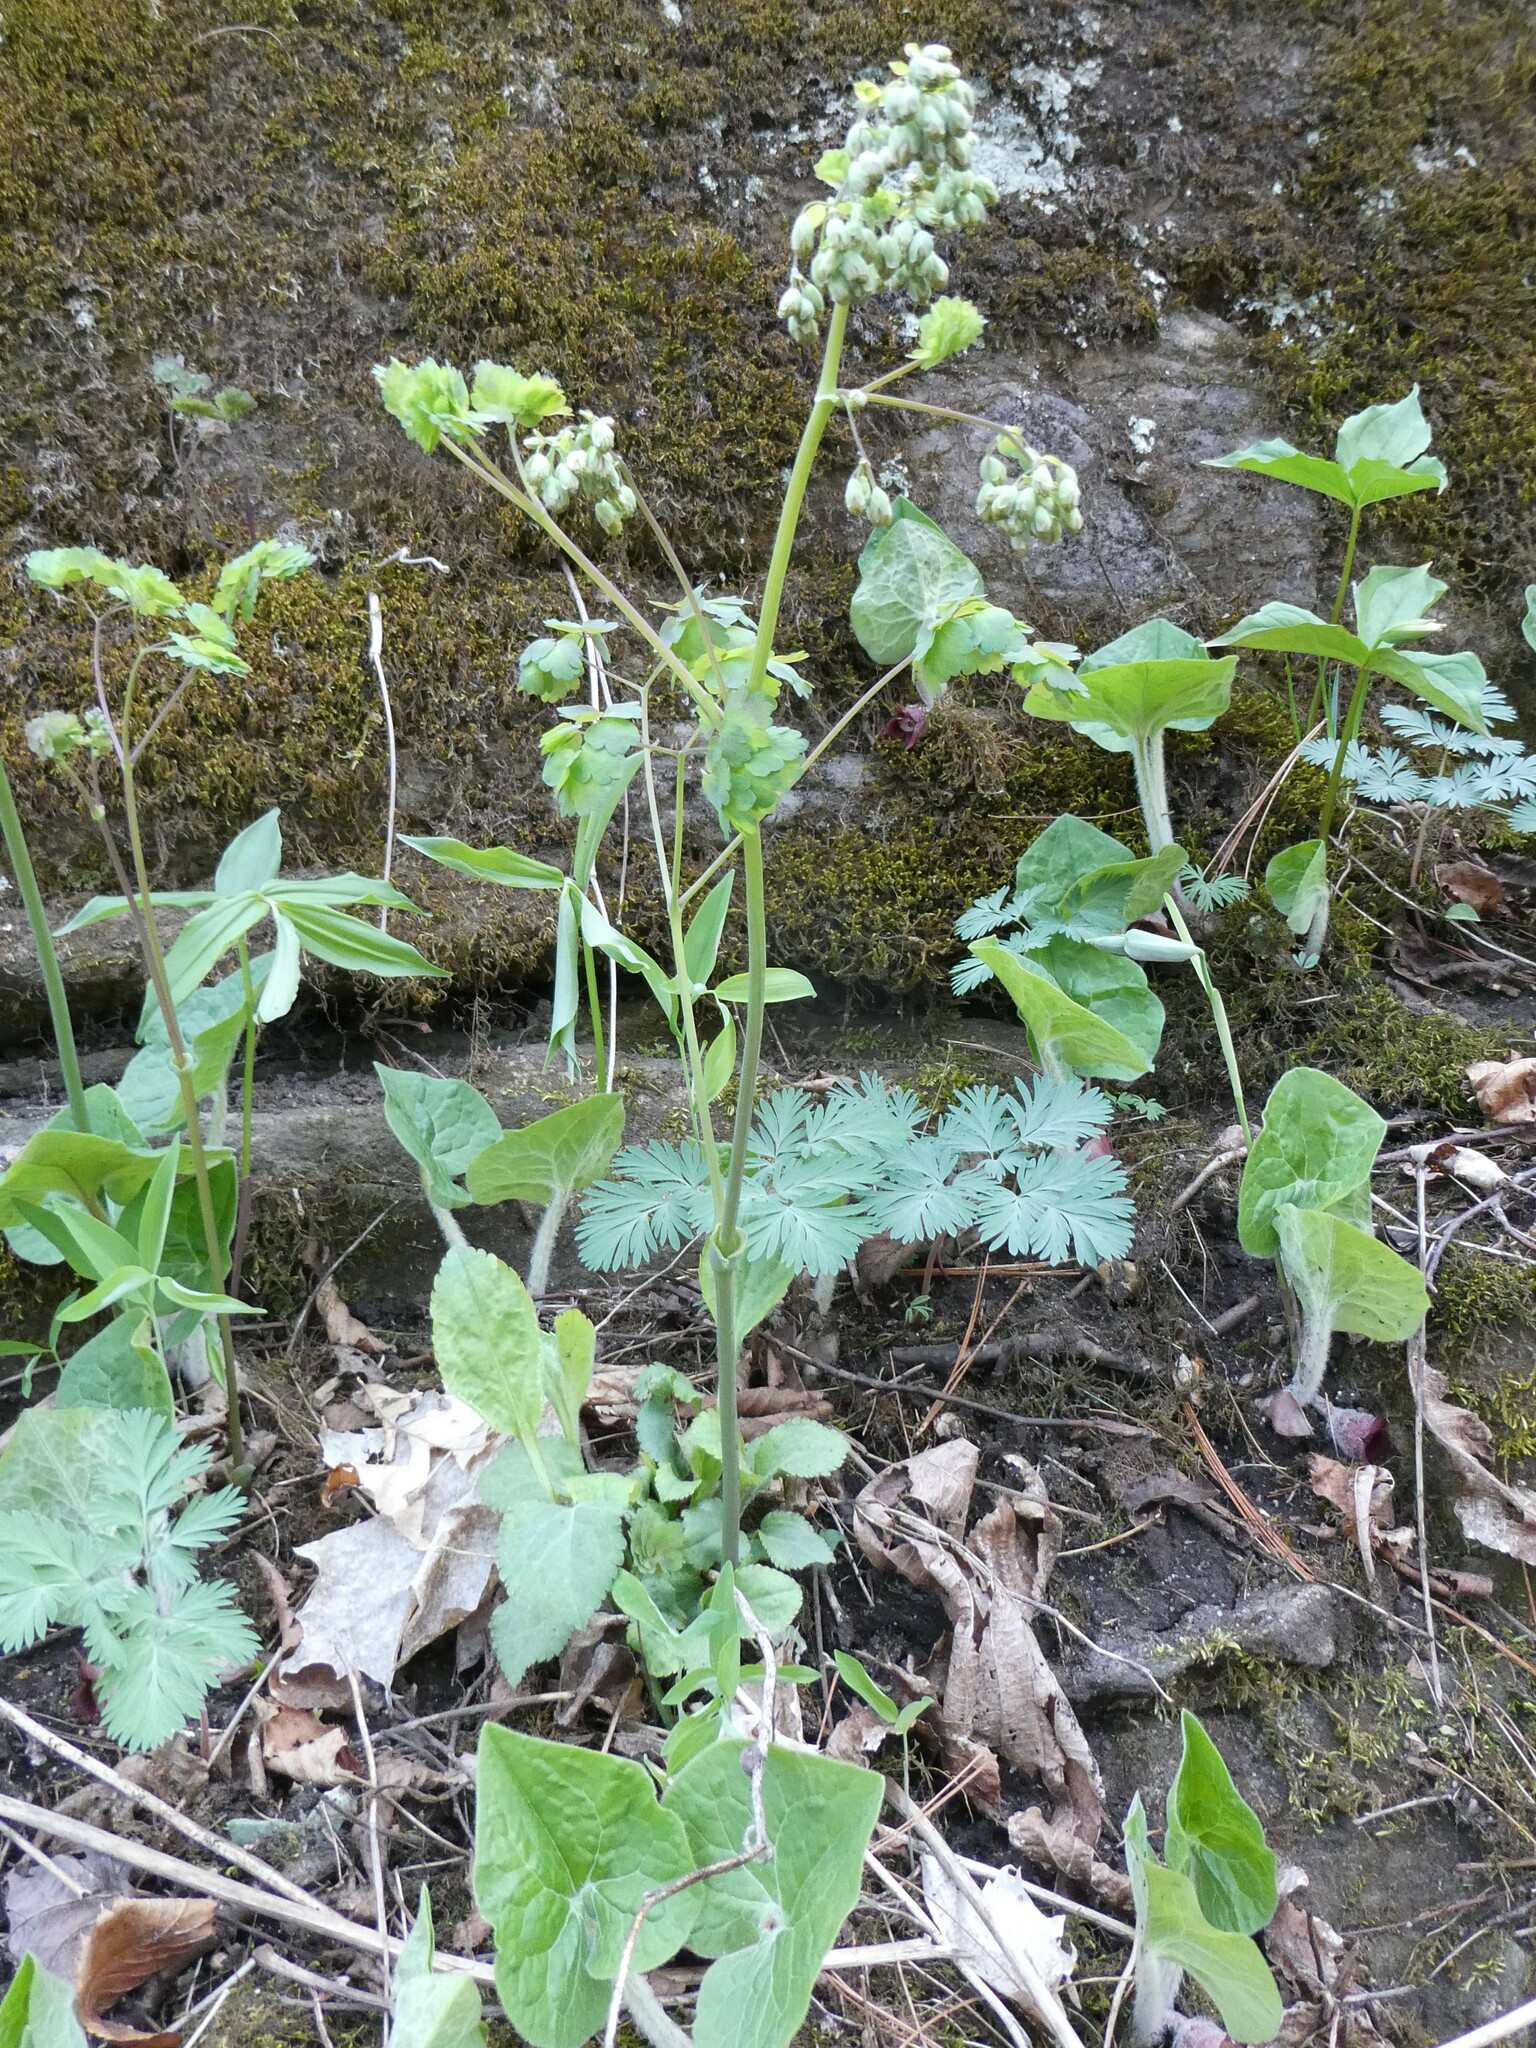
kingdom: Plantae
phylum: Tracheophyta
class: Magnoliopsida
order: Ranunculales
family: Ranunculaceae
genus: Thalictrum
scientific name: Thalictrum dioicum
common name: Early meadow-rue
